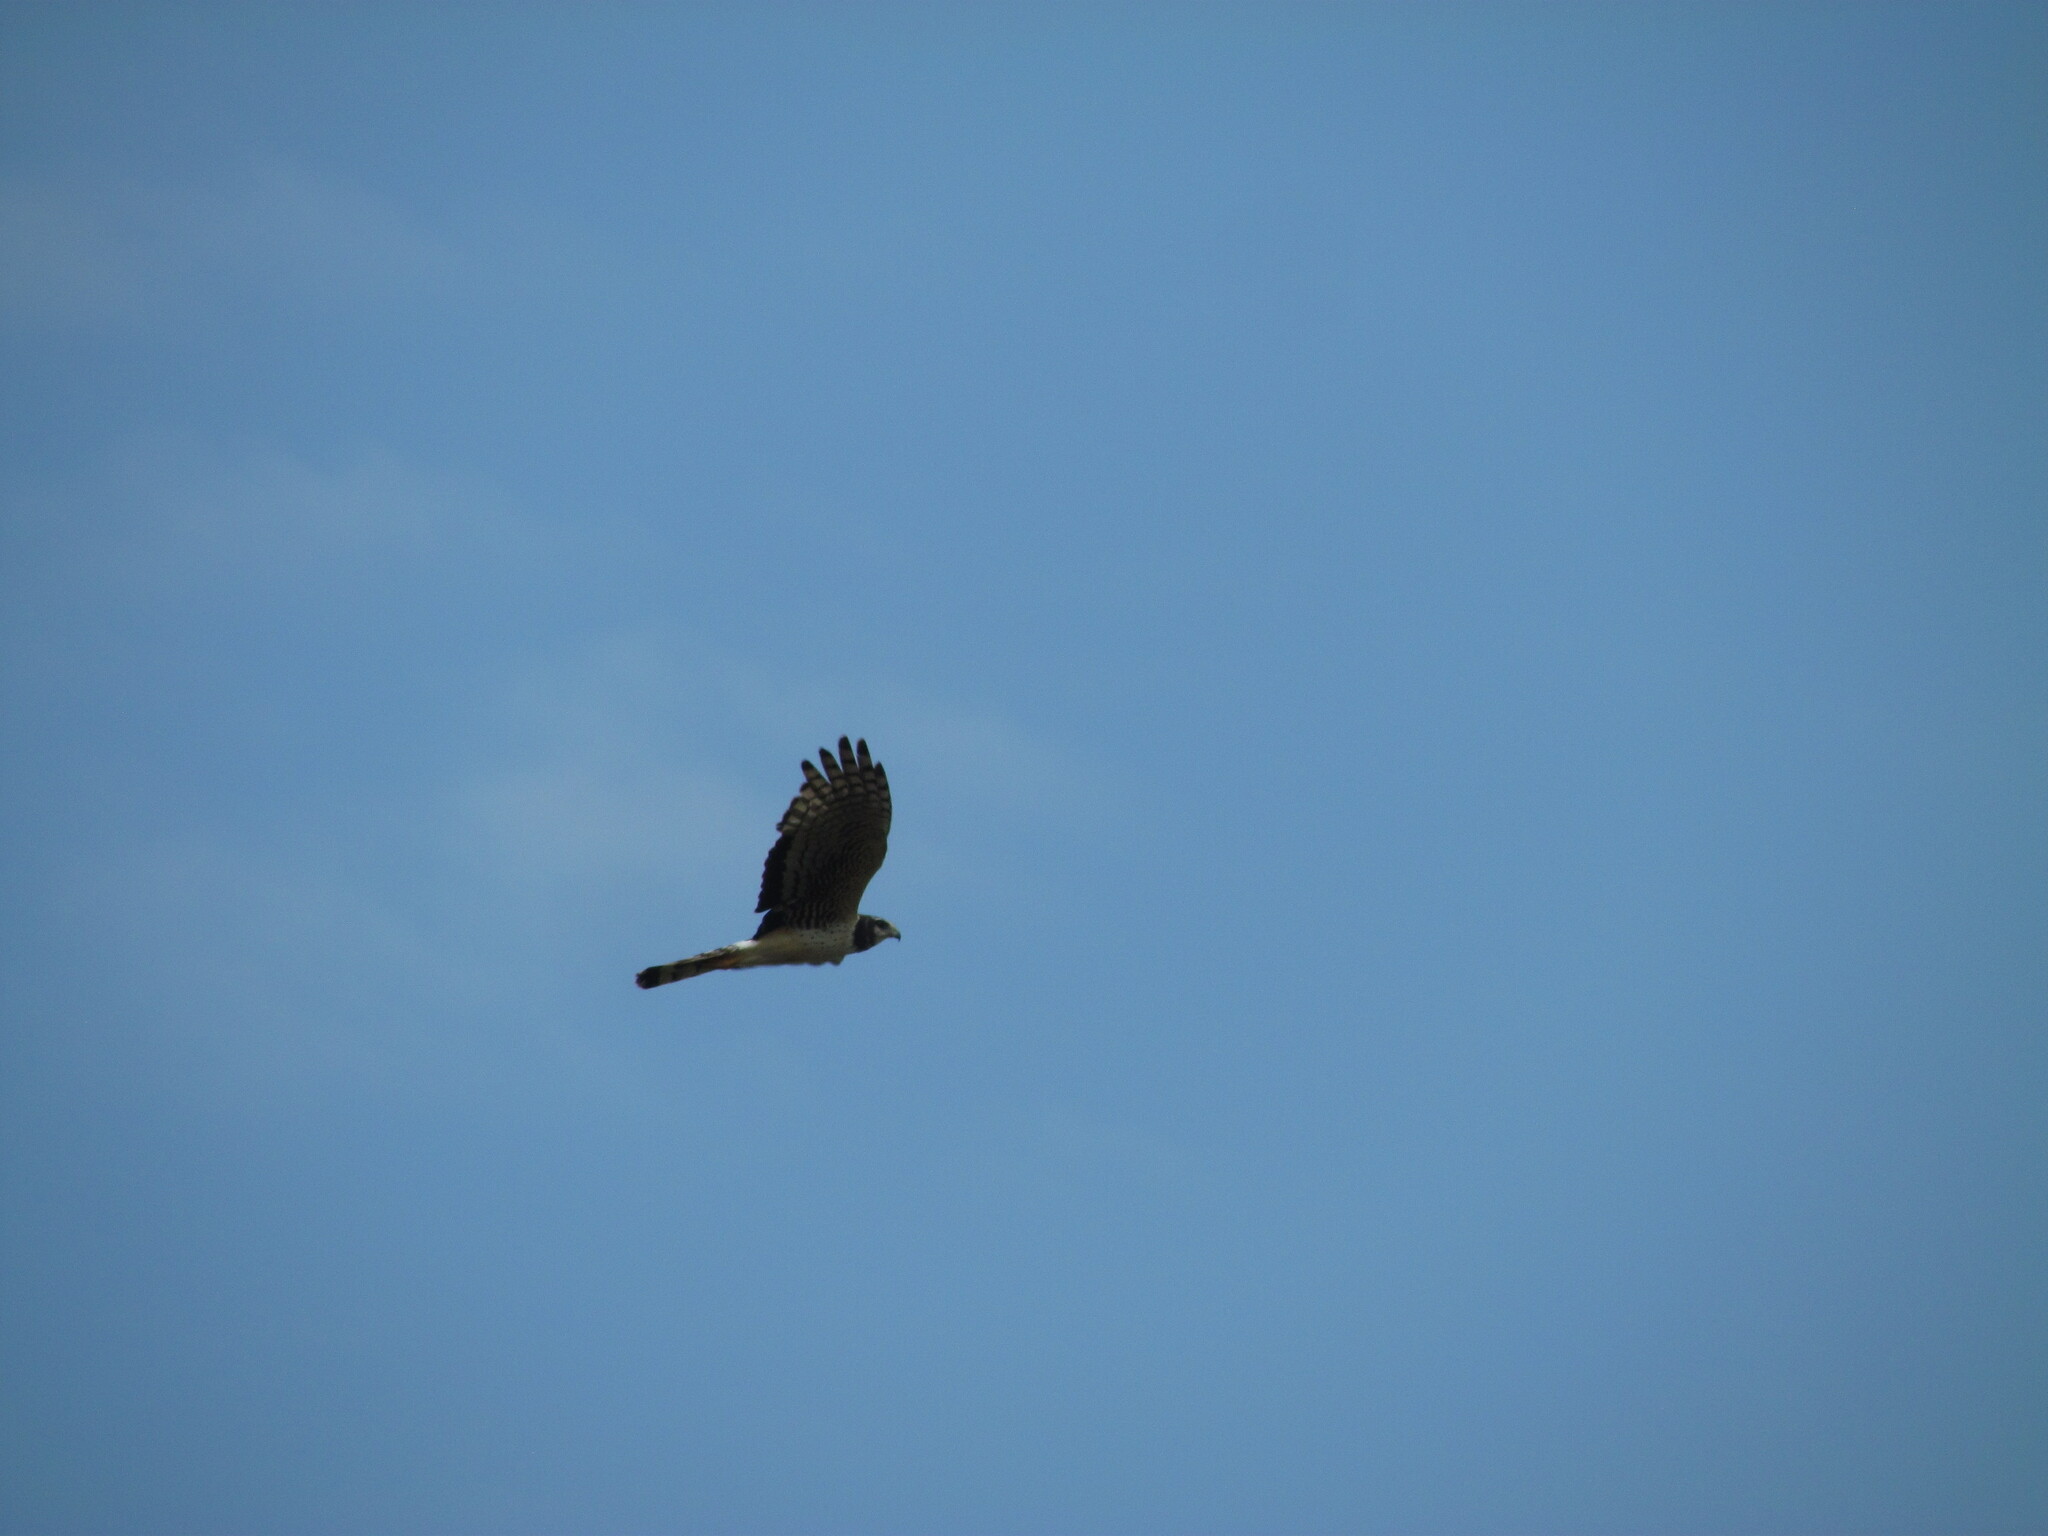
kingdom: Animalia
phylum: Chordata
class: Aves
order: Accipitriformes
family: Accipitridae
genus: Circus
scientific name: Circus buffoni
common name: Long-winged harrier
